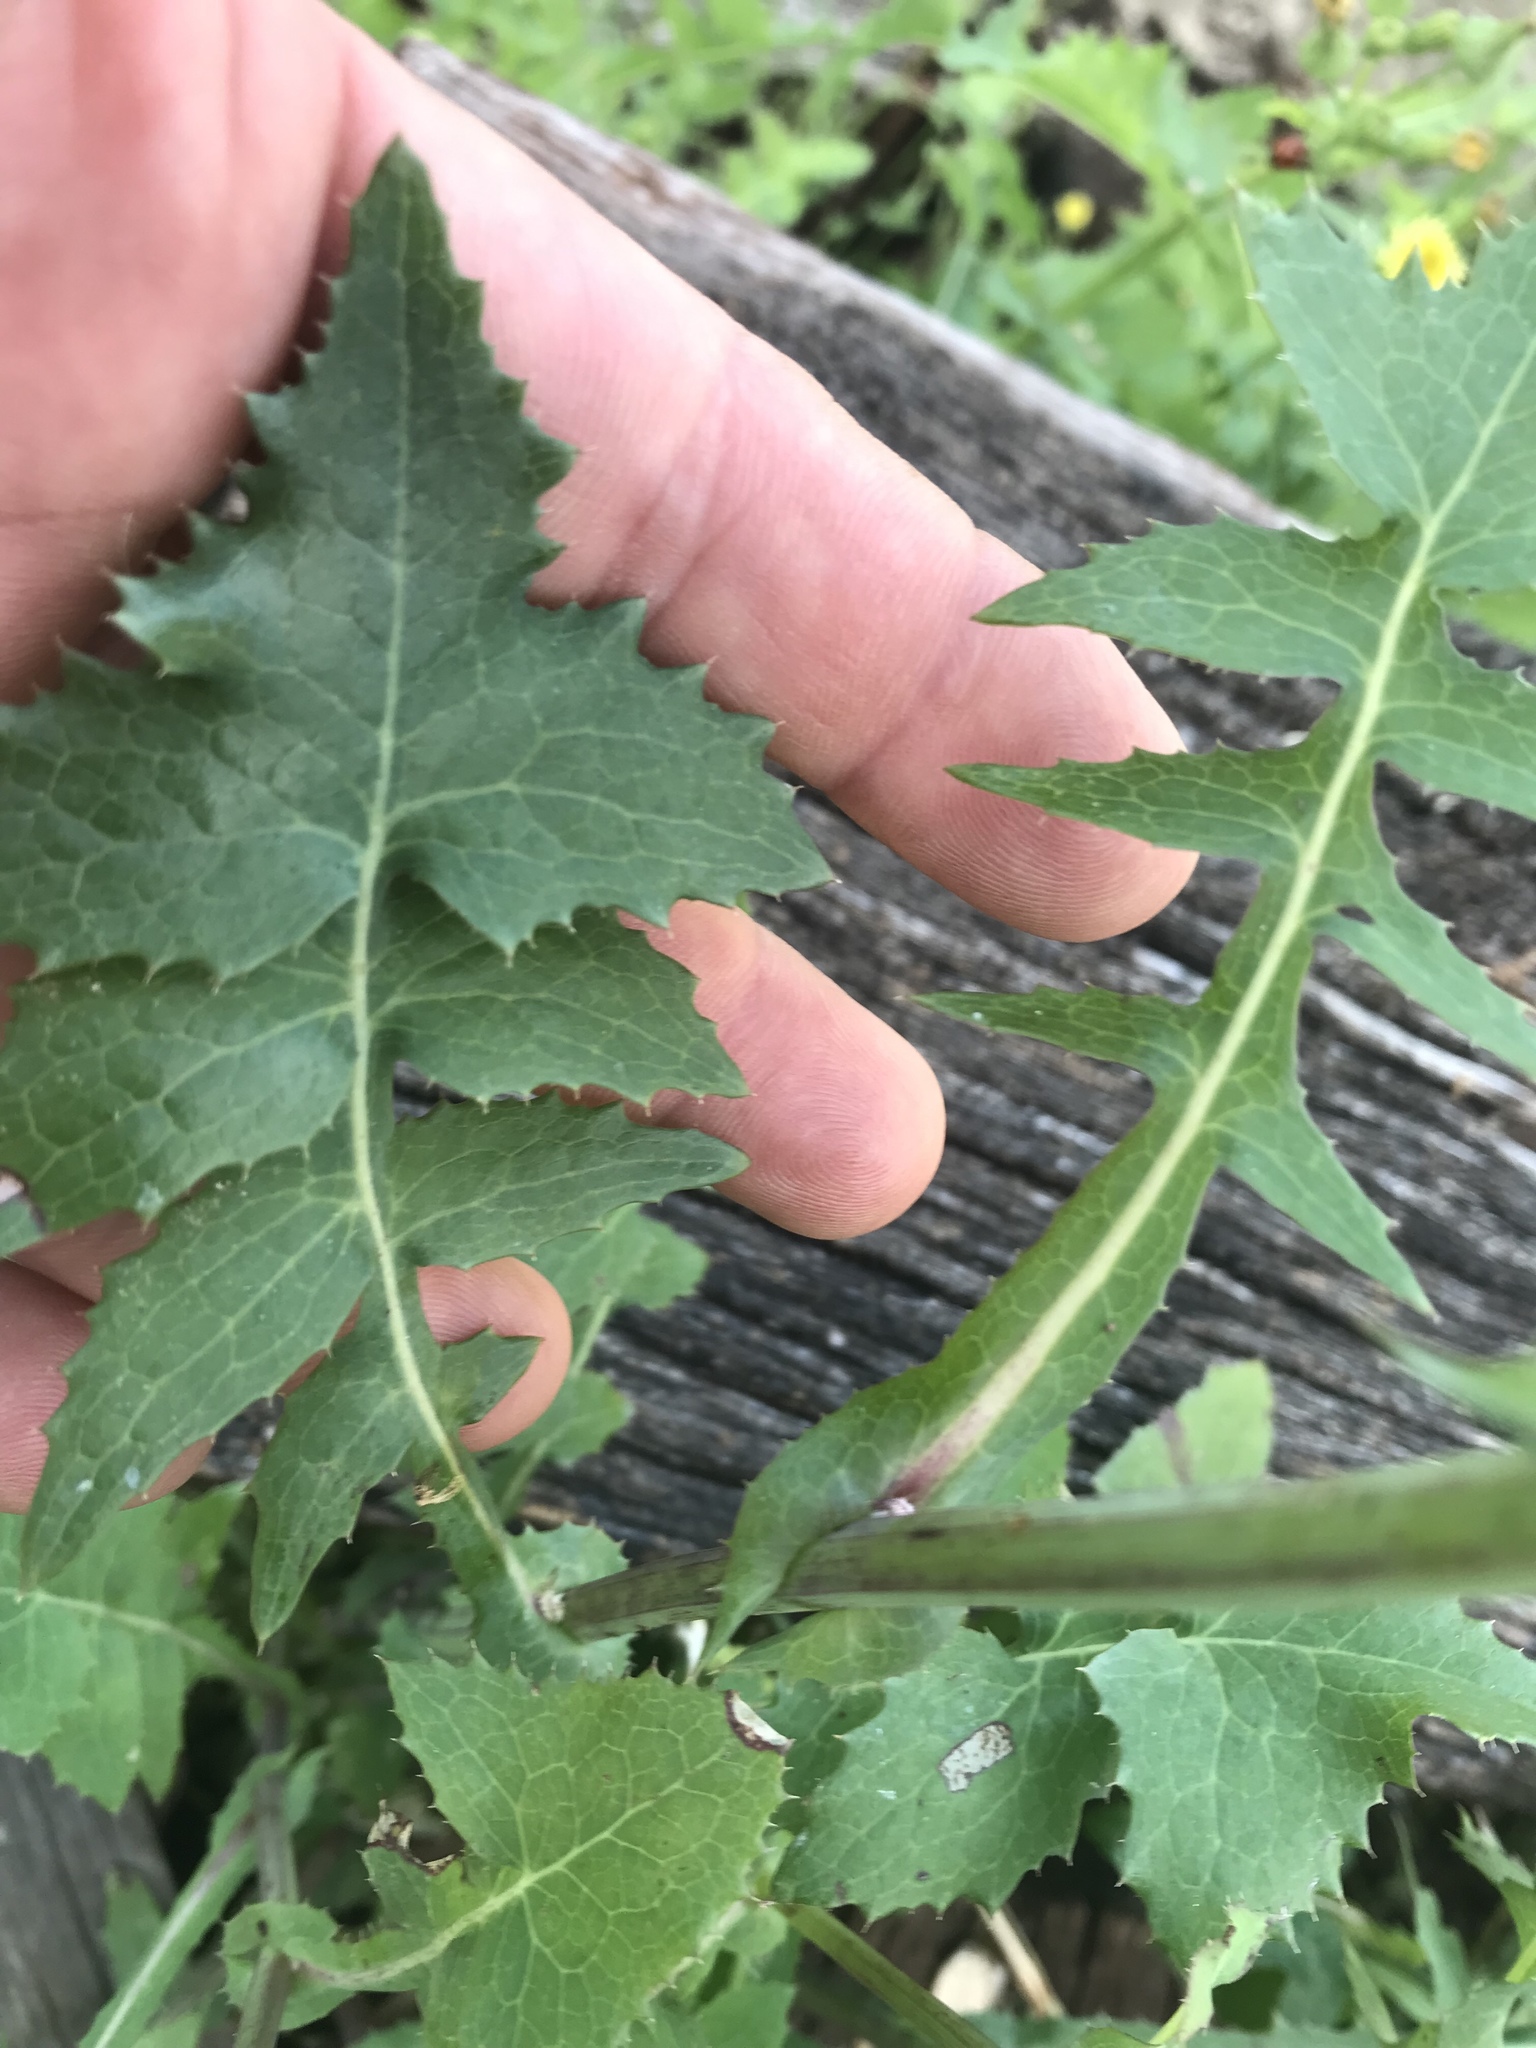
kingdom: Plantae
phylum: Tracheophyta
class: Magnoliopsida
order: Asterales
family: Asteraceae
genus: Sonchus
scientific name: Sonchus oleraceus
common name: Common sowthistle
